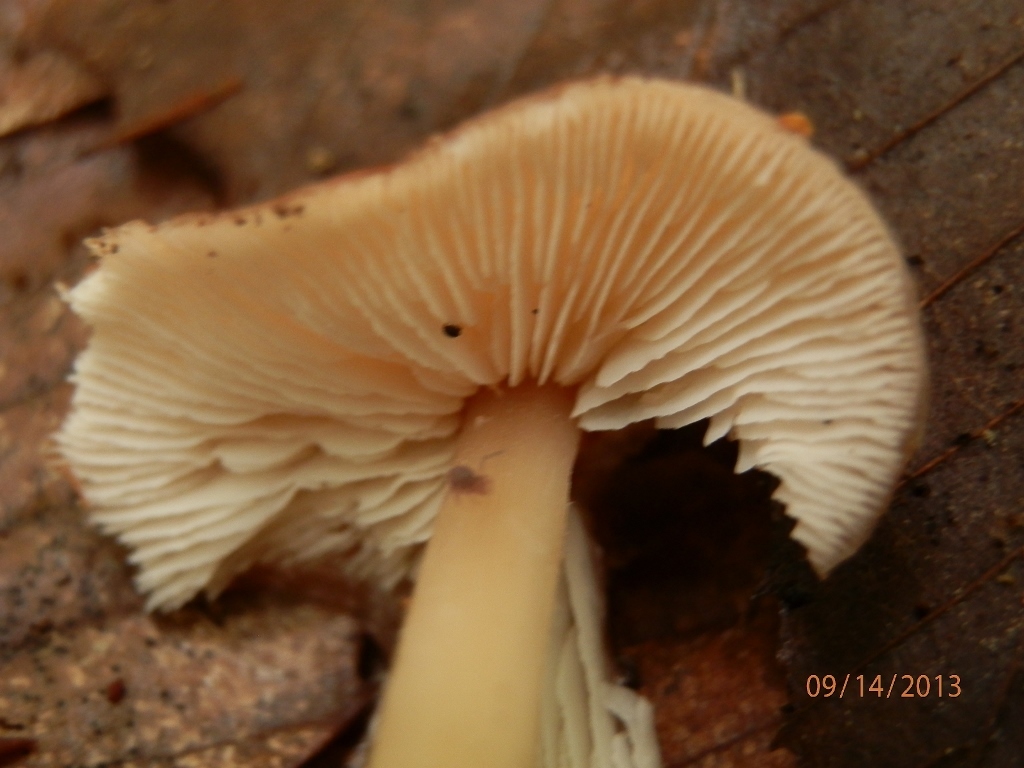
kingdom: Fungi
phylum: Basidiomycota
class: Agaricomycetes
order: Agaricales
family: Omphalotaceae
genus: Rhodocollybia
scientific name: Rhodocollybia butyracea
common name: Butter cap
